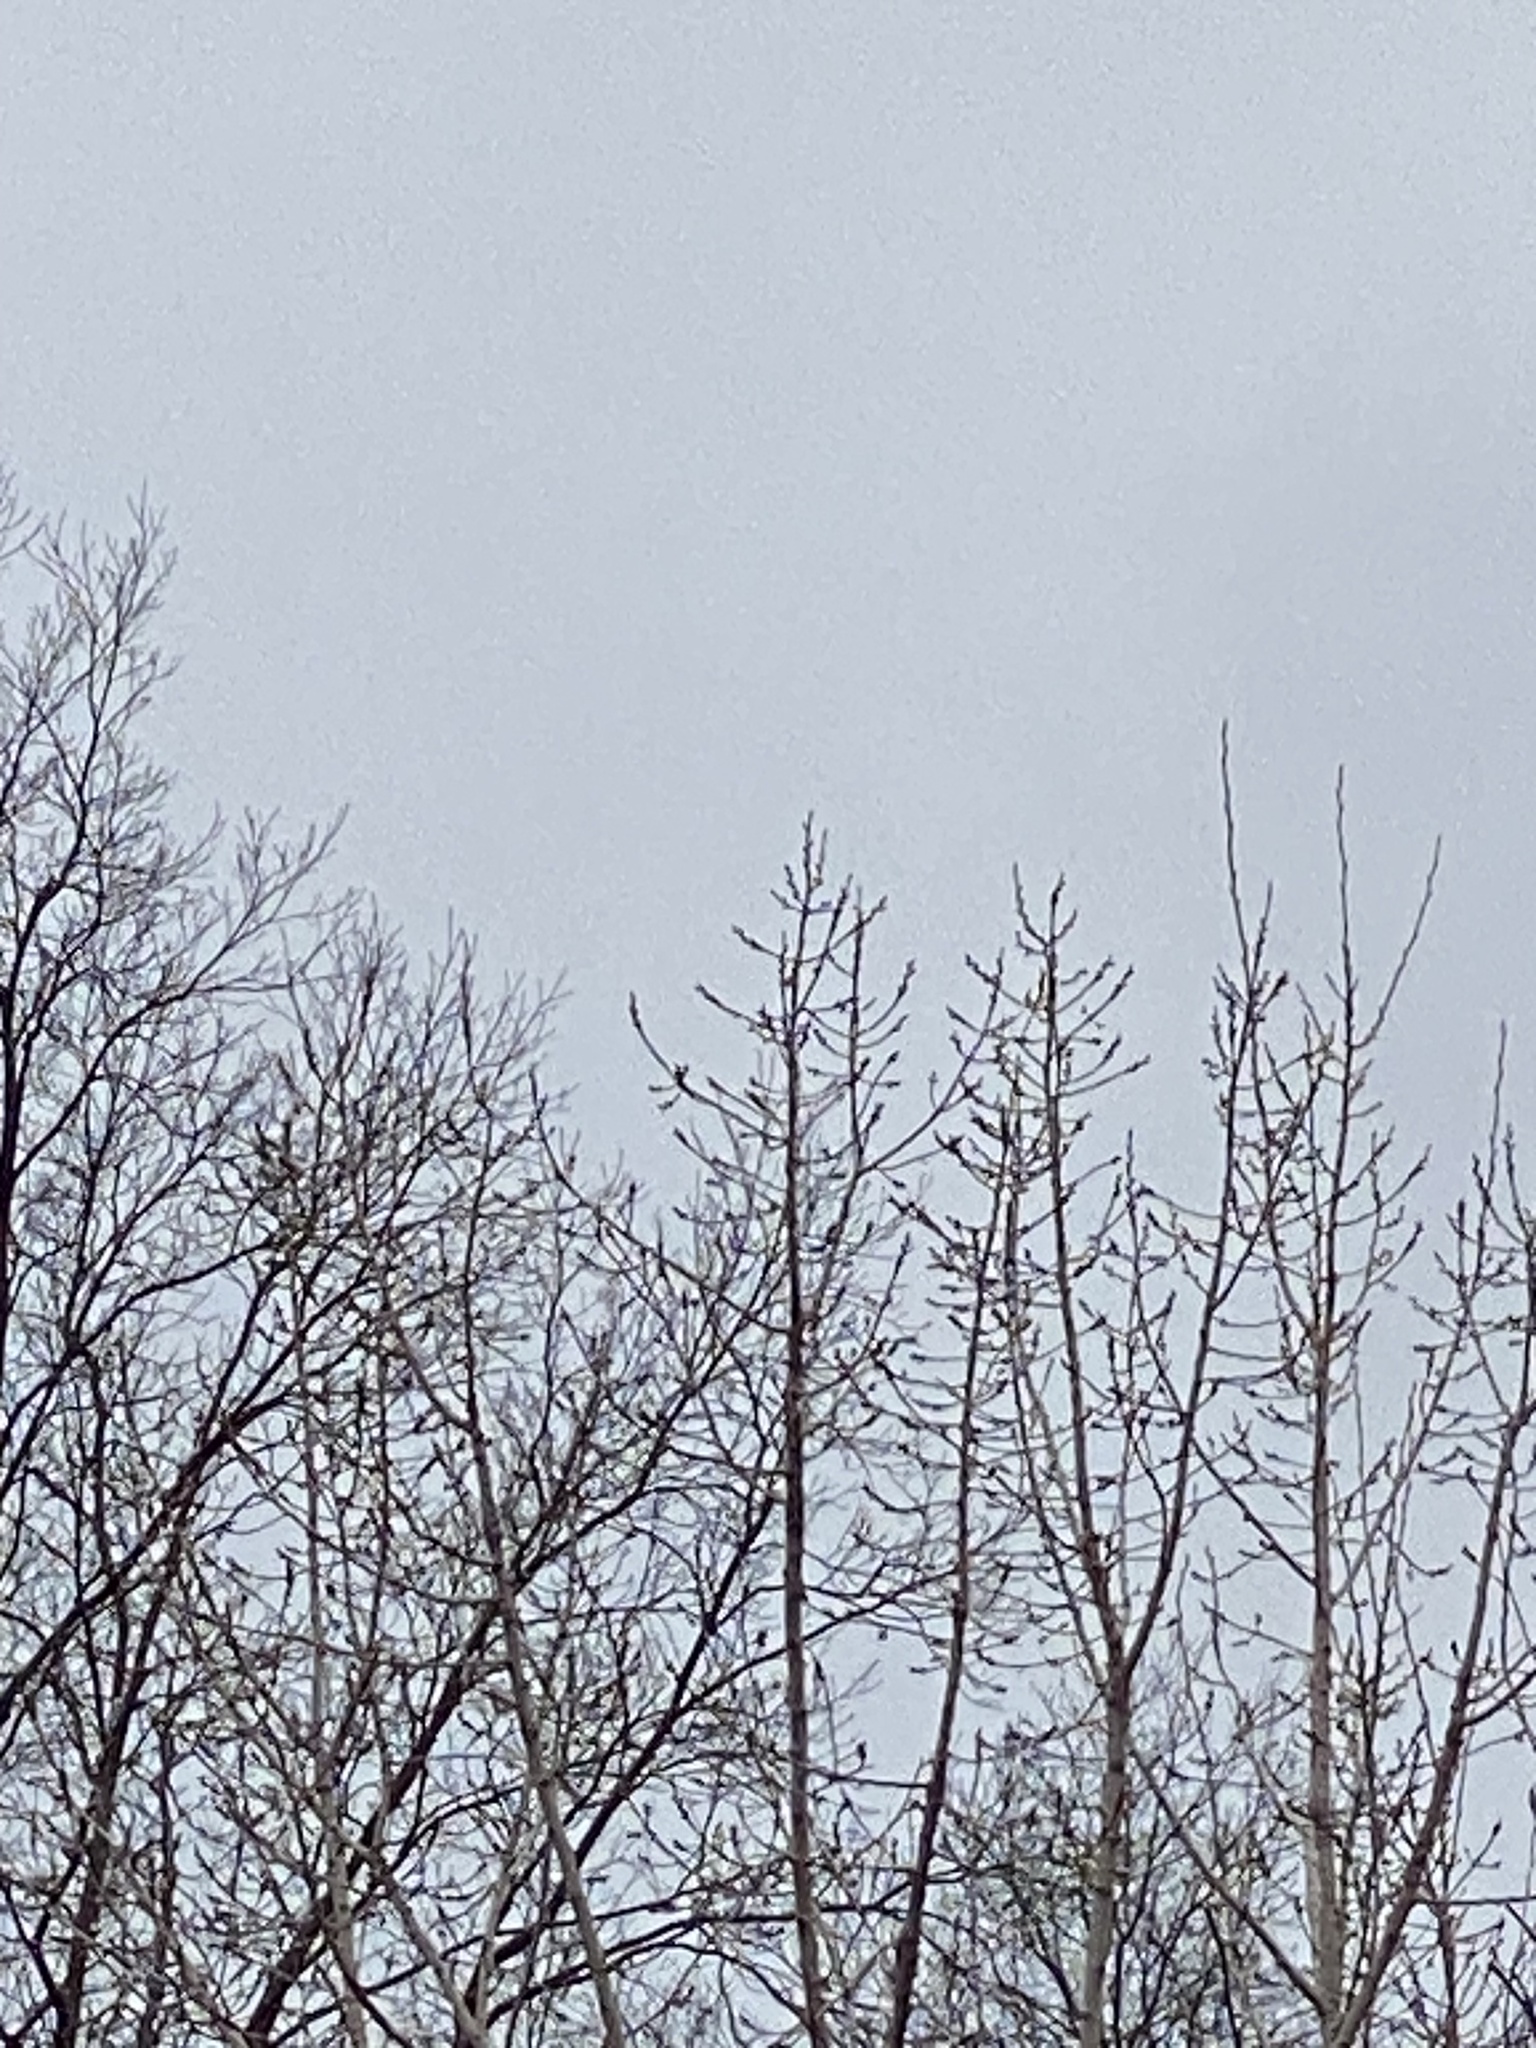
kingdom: Animalia
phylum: Chordata
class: Aves
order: Passeriformes
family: Turdidae
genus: Turdus
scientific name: Turdus migratorius
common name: American robin
